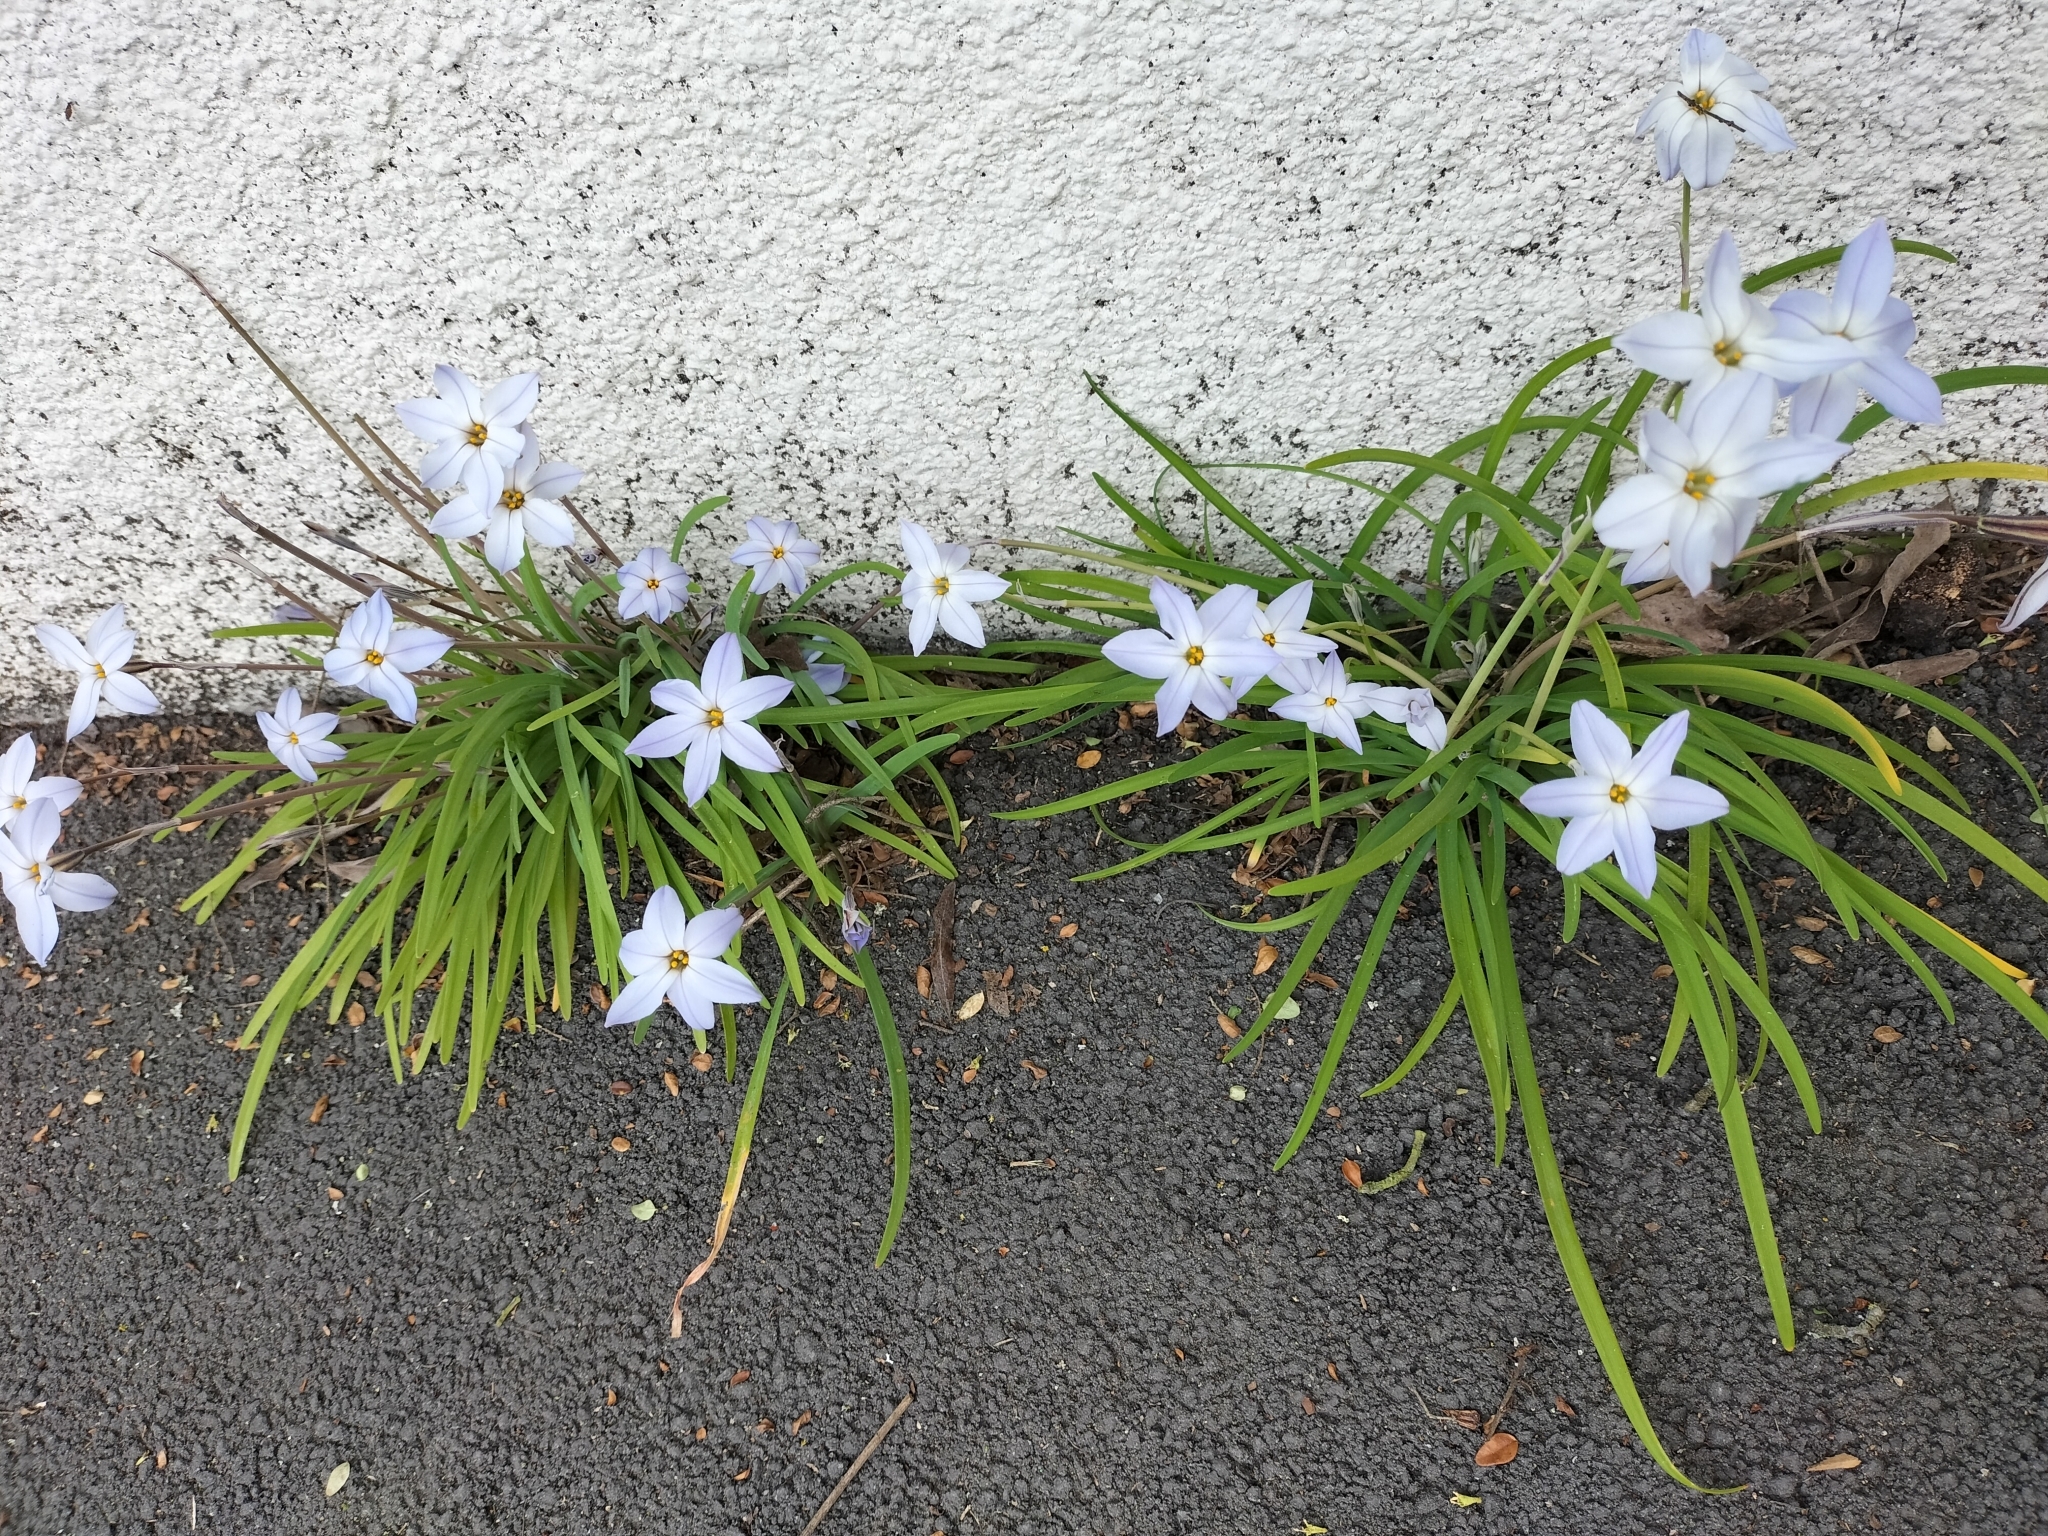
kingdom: Plantae
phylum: Tracheophyta
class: Liliopsida
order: Asparagales
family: Amaryllidaceae
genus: Ipheion
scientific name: Ipheion uniflorum
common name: Spring starflower
